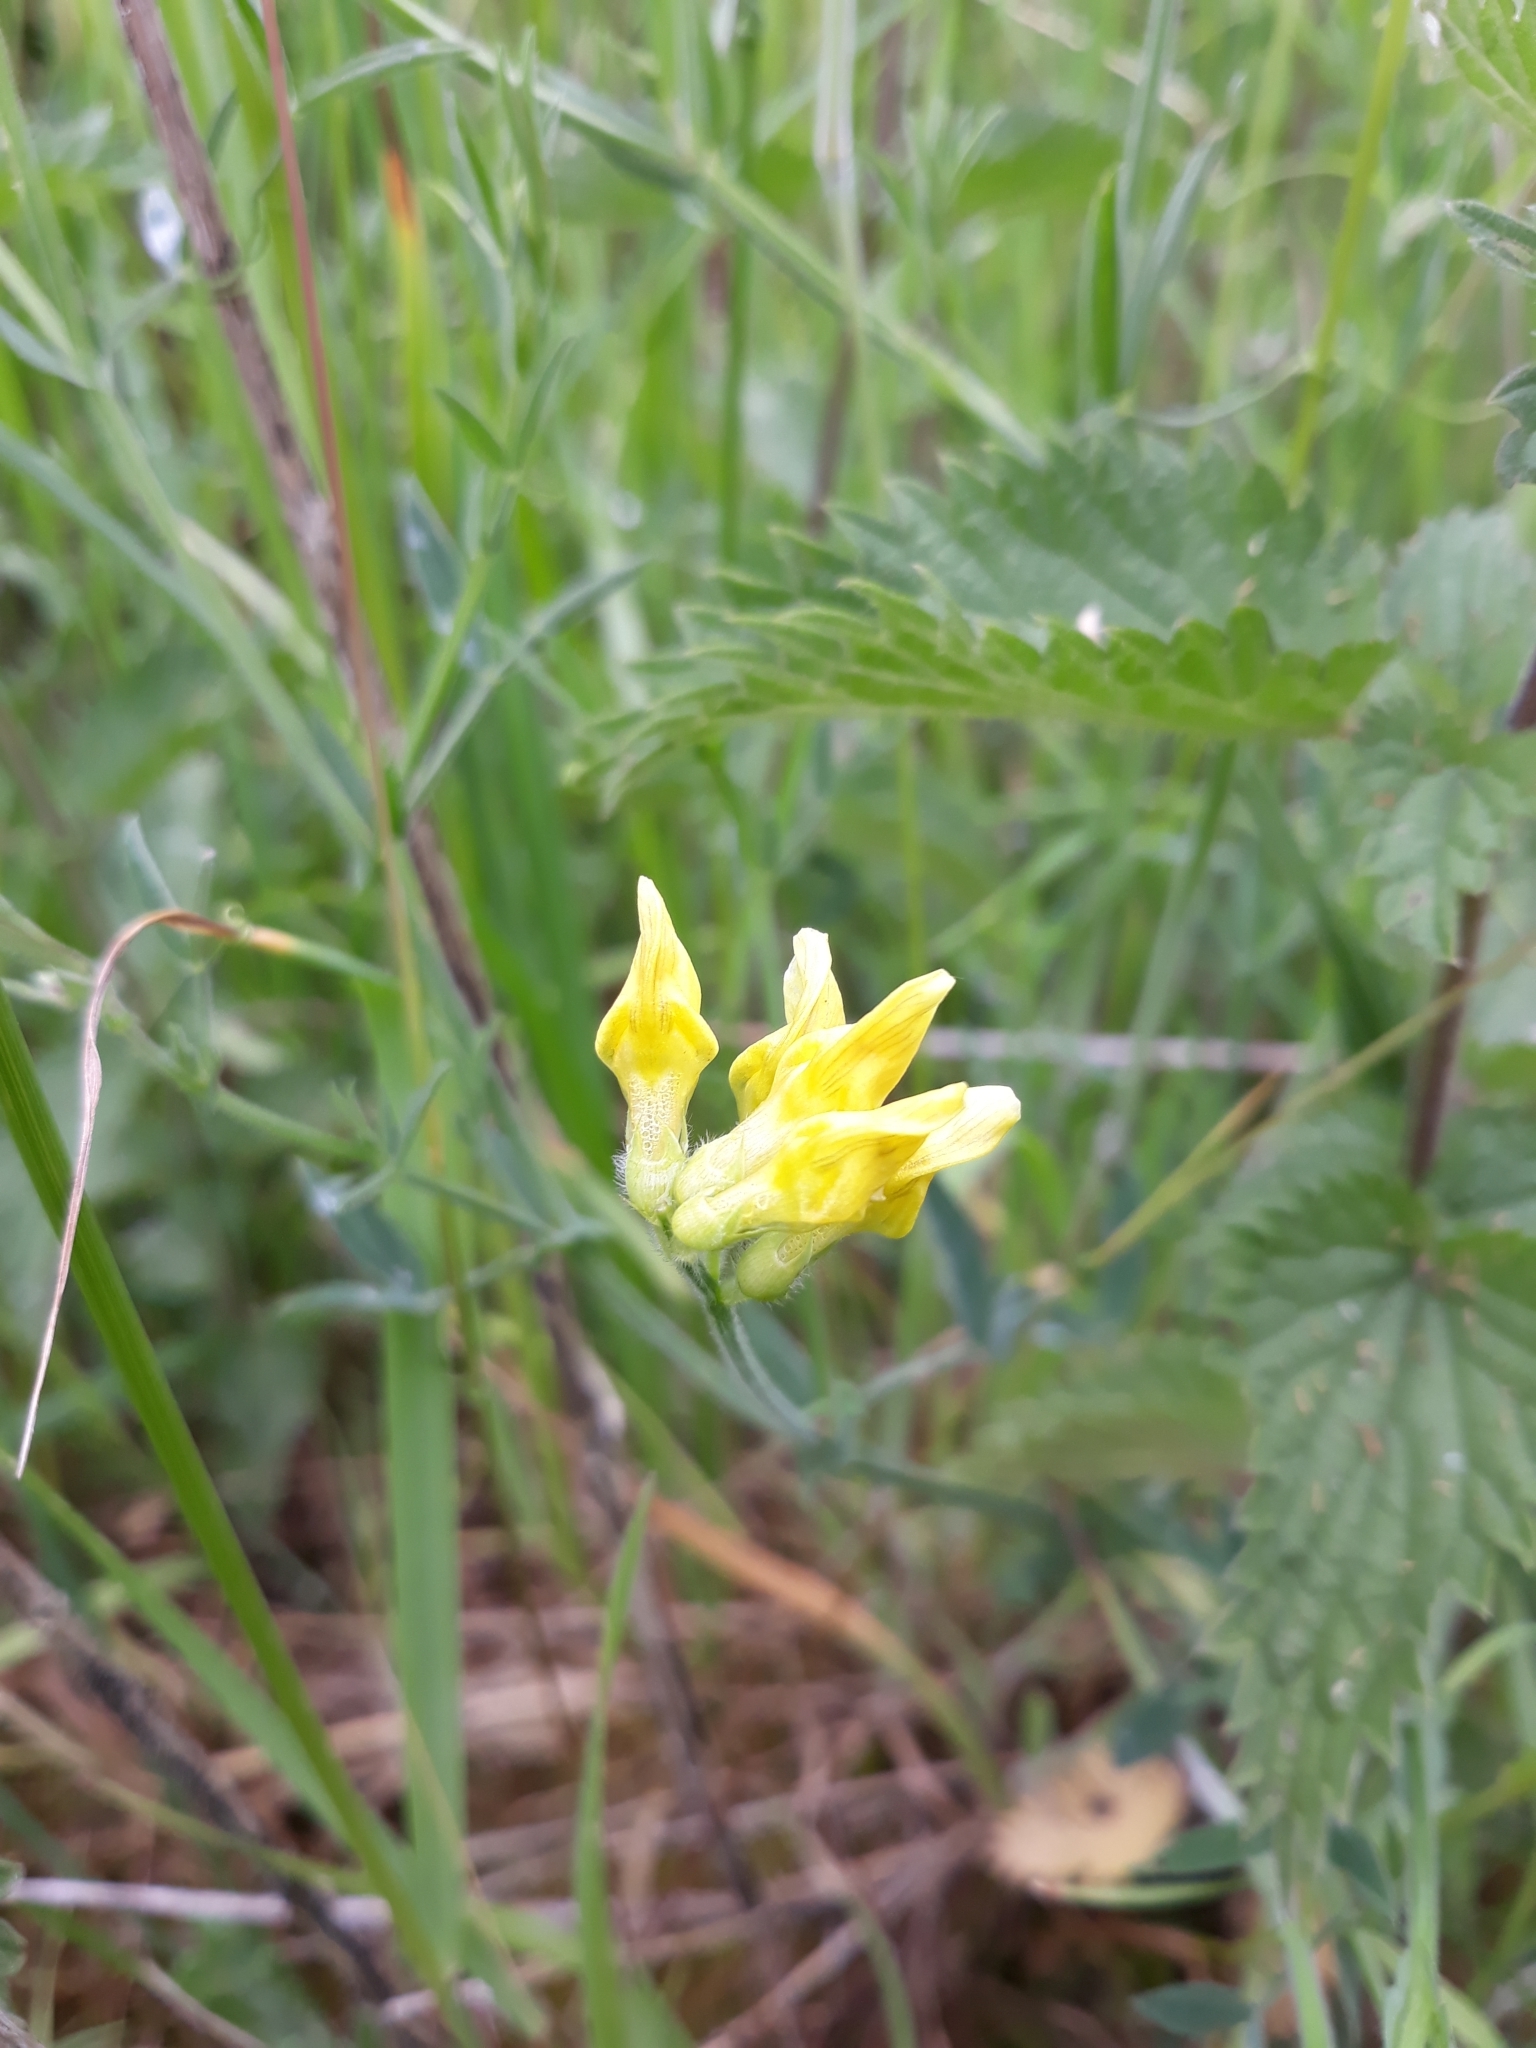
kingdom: Plantae
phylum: Tracheophyta
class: Magnoliopsida
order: Fabales
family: Fabaceae
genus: Lathyrus
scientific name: Lathyrus pratensis
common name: Meadow vetchling
